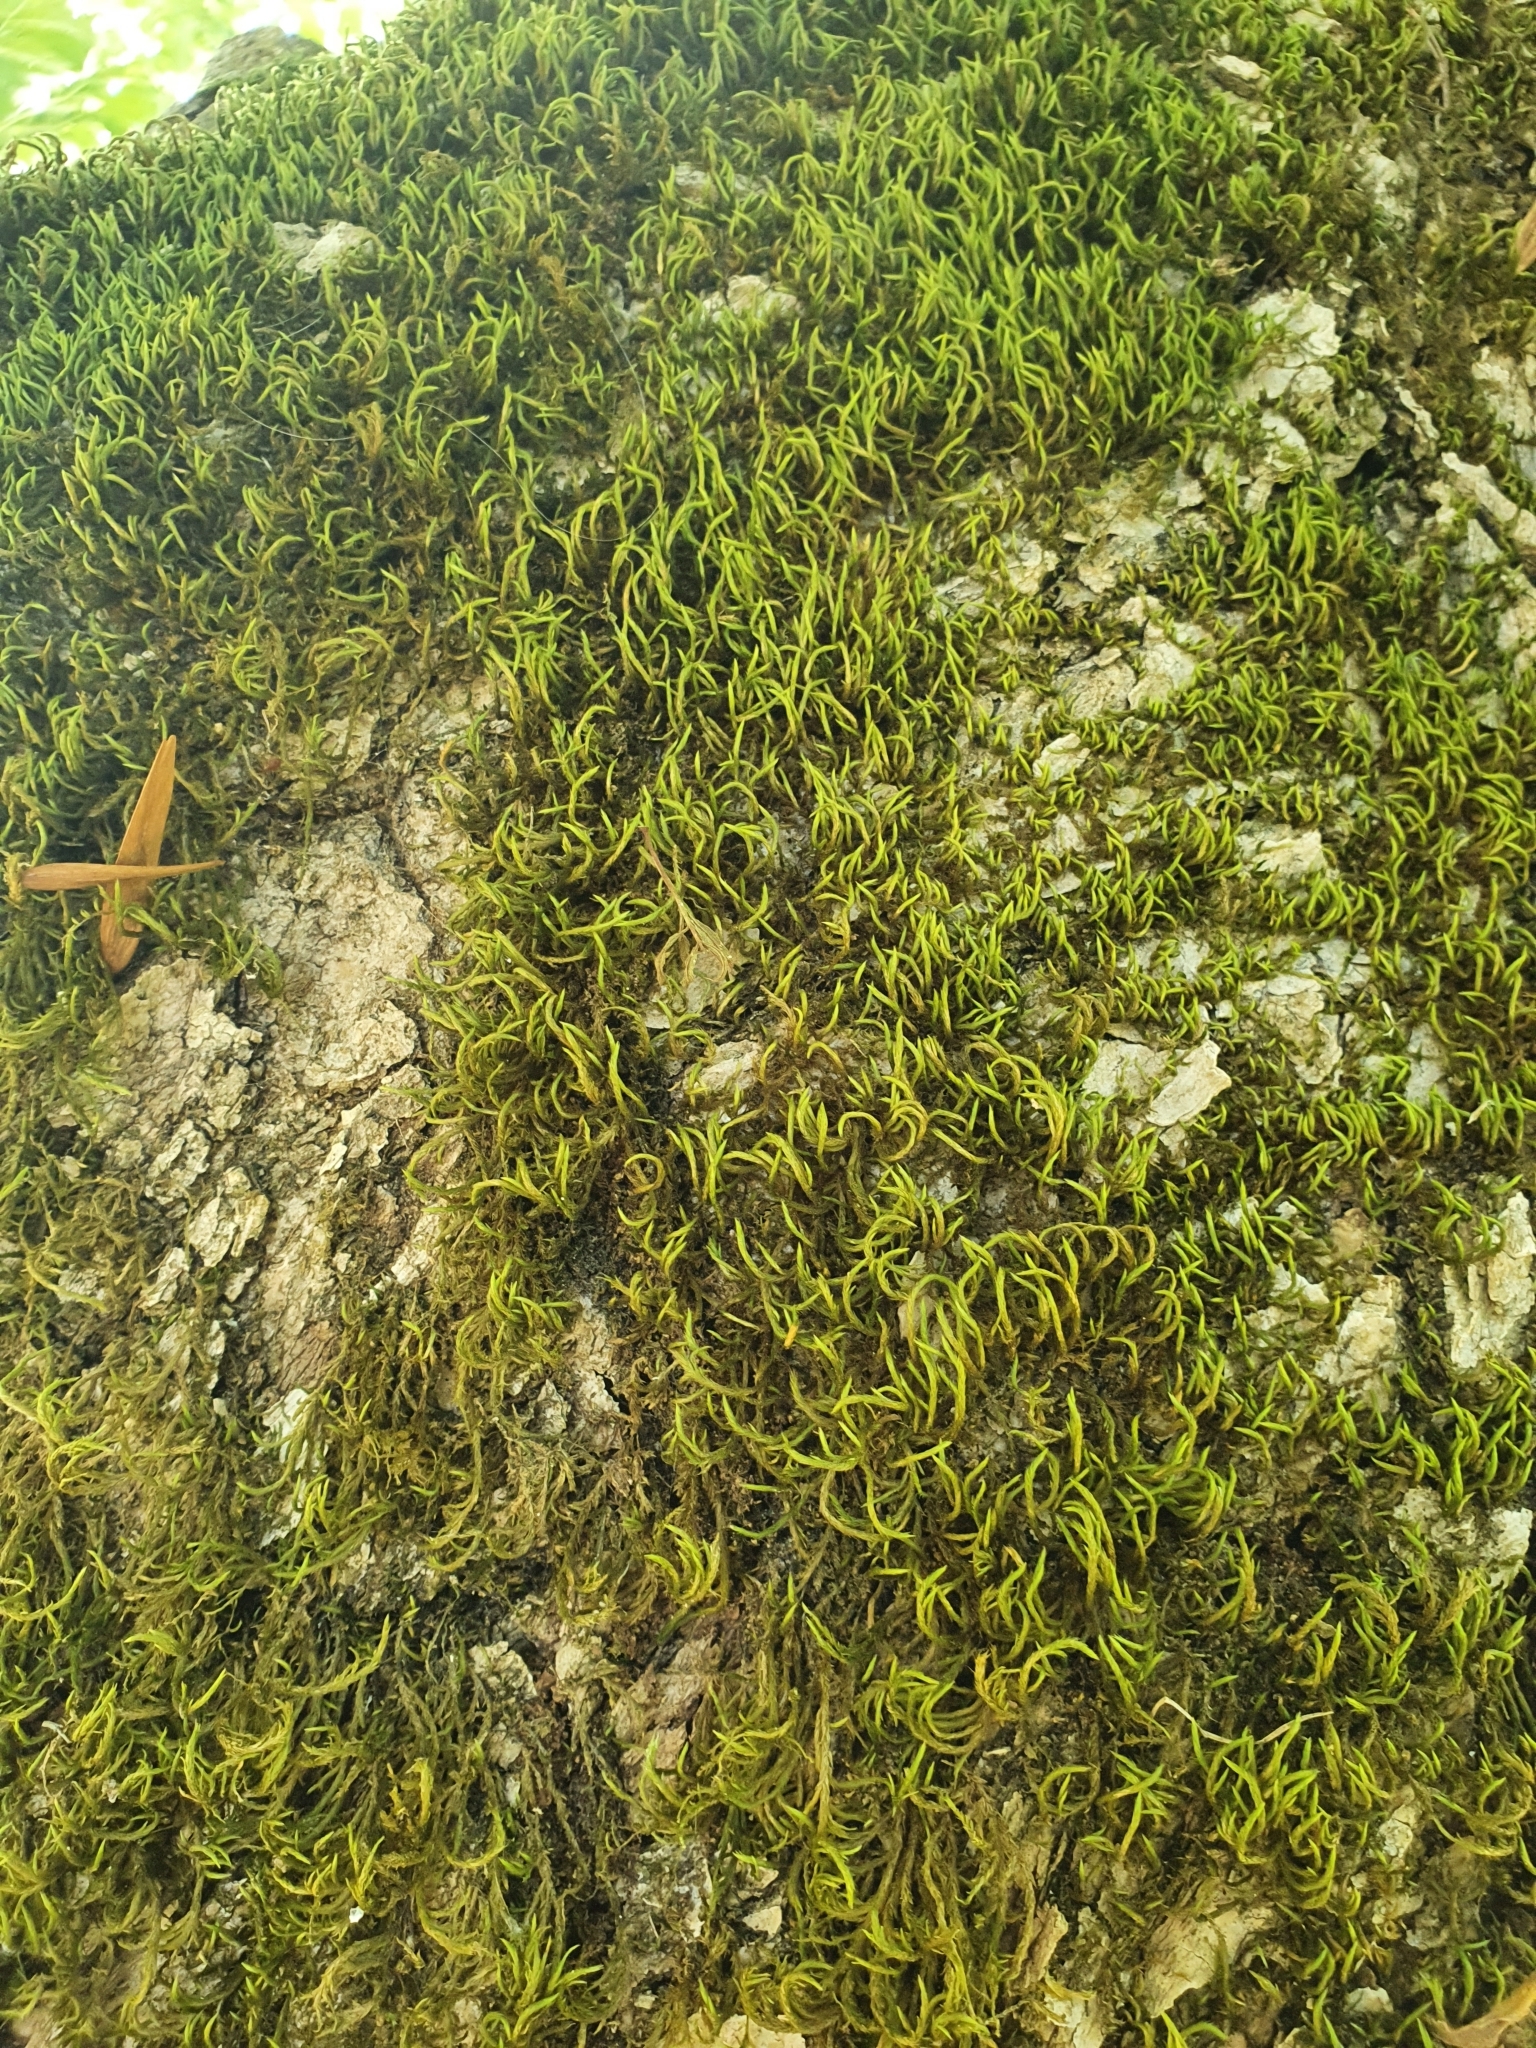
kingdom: Plantae
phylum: Bryophyta
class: Bryopsida
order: Hypnales
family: Leucodontaceae
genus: Leucodon
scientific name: Leucodon sciuroides
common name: Squirrel-tail moss
